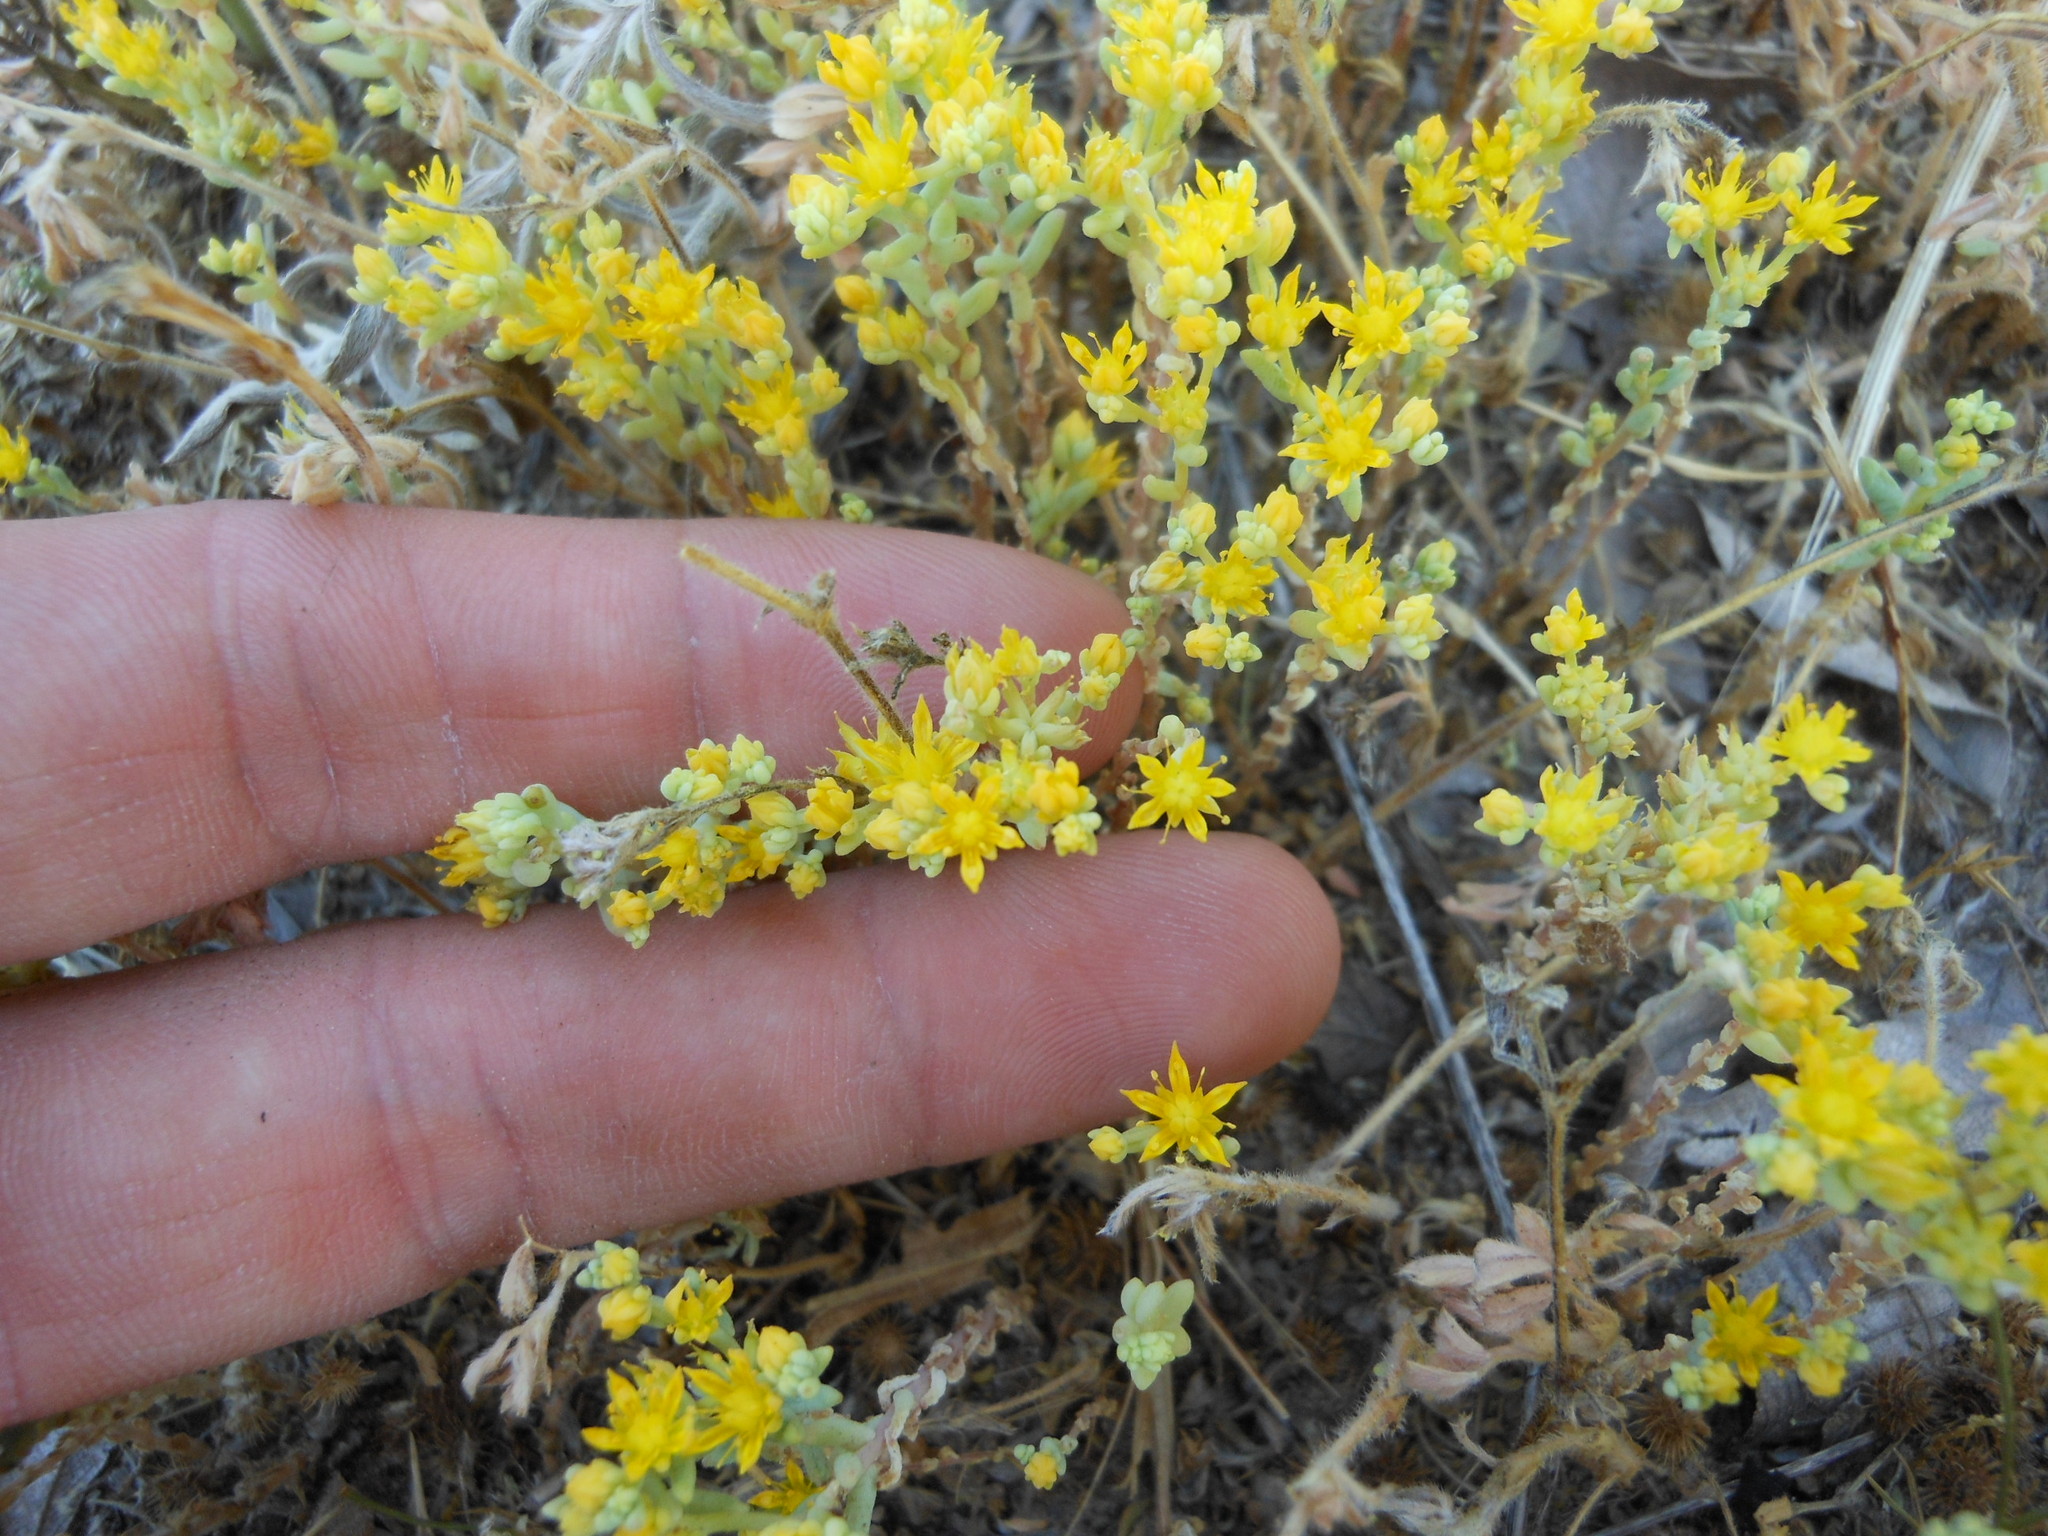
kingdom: Plantae
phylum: Tracheophyta
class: Magnoliopsida
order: Saxifragales
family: Crassulaceae
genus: Sedum
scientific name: Sedum nuttallii
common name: Yellow stonecrop
